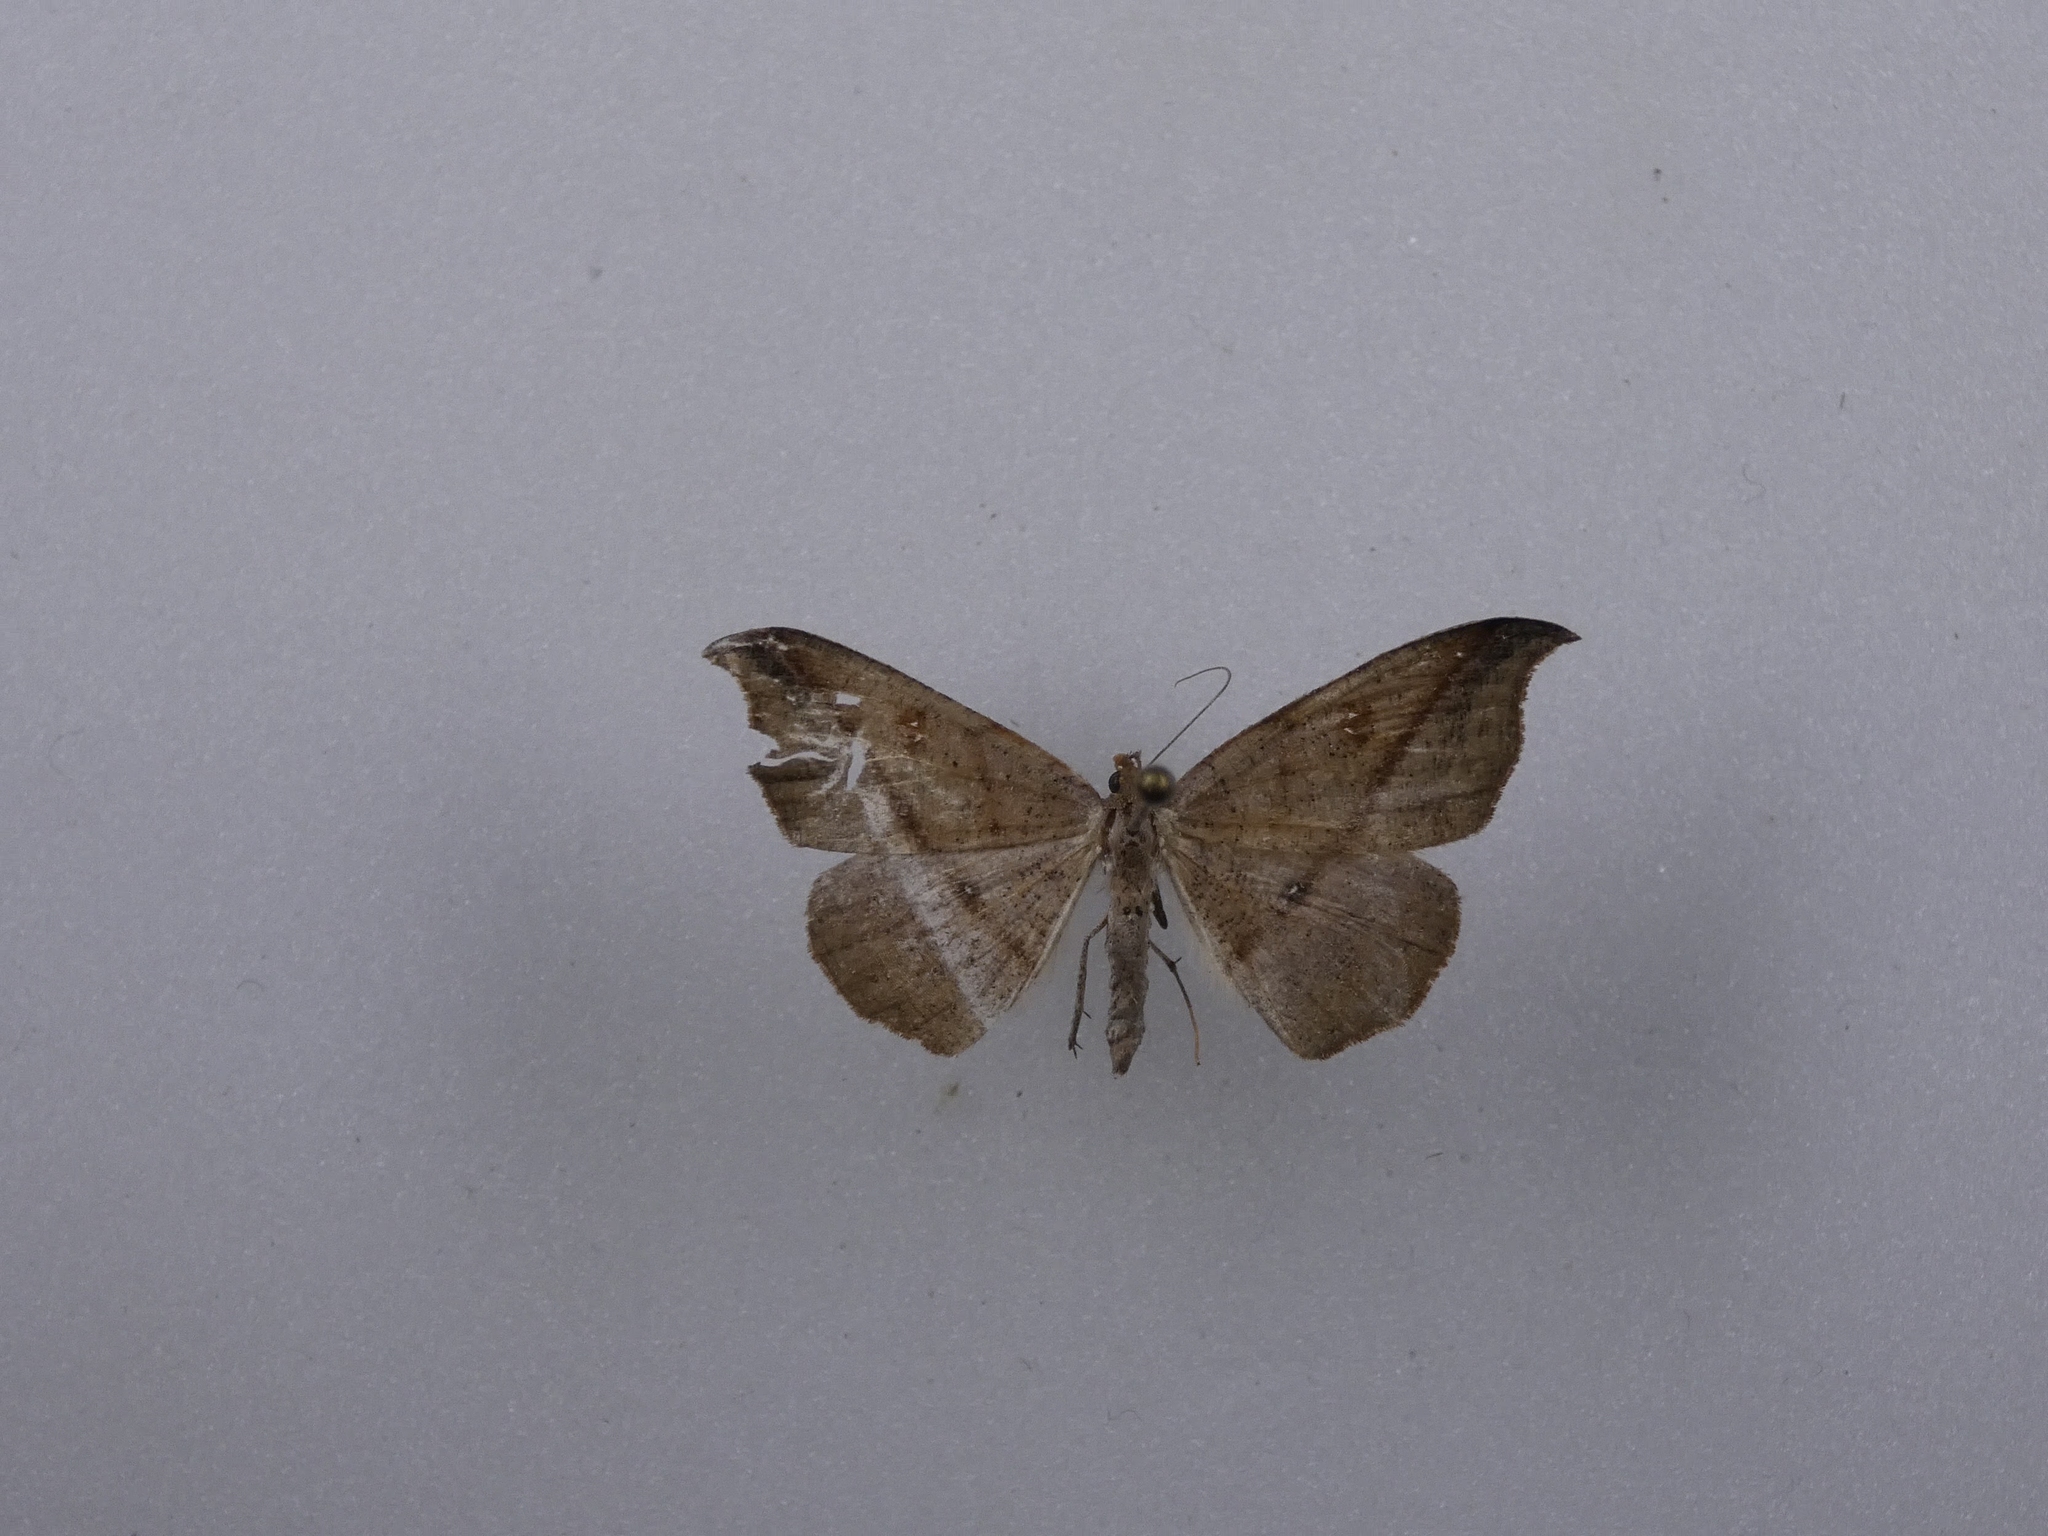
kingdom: Animalia
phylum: Arthropoda
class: Insecta
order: Lepidoptera
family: Geometridae
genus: Sarisa
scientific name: Sarisa muriferata
